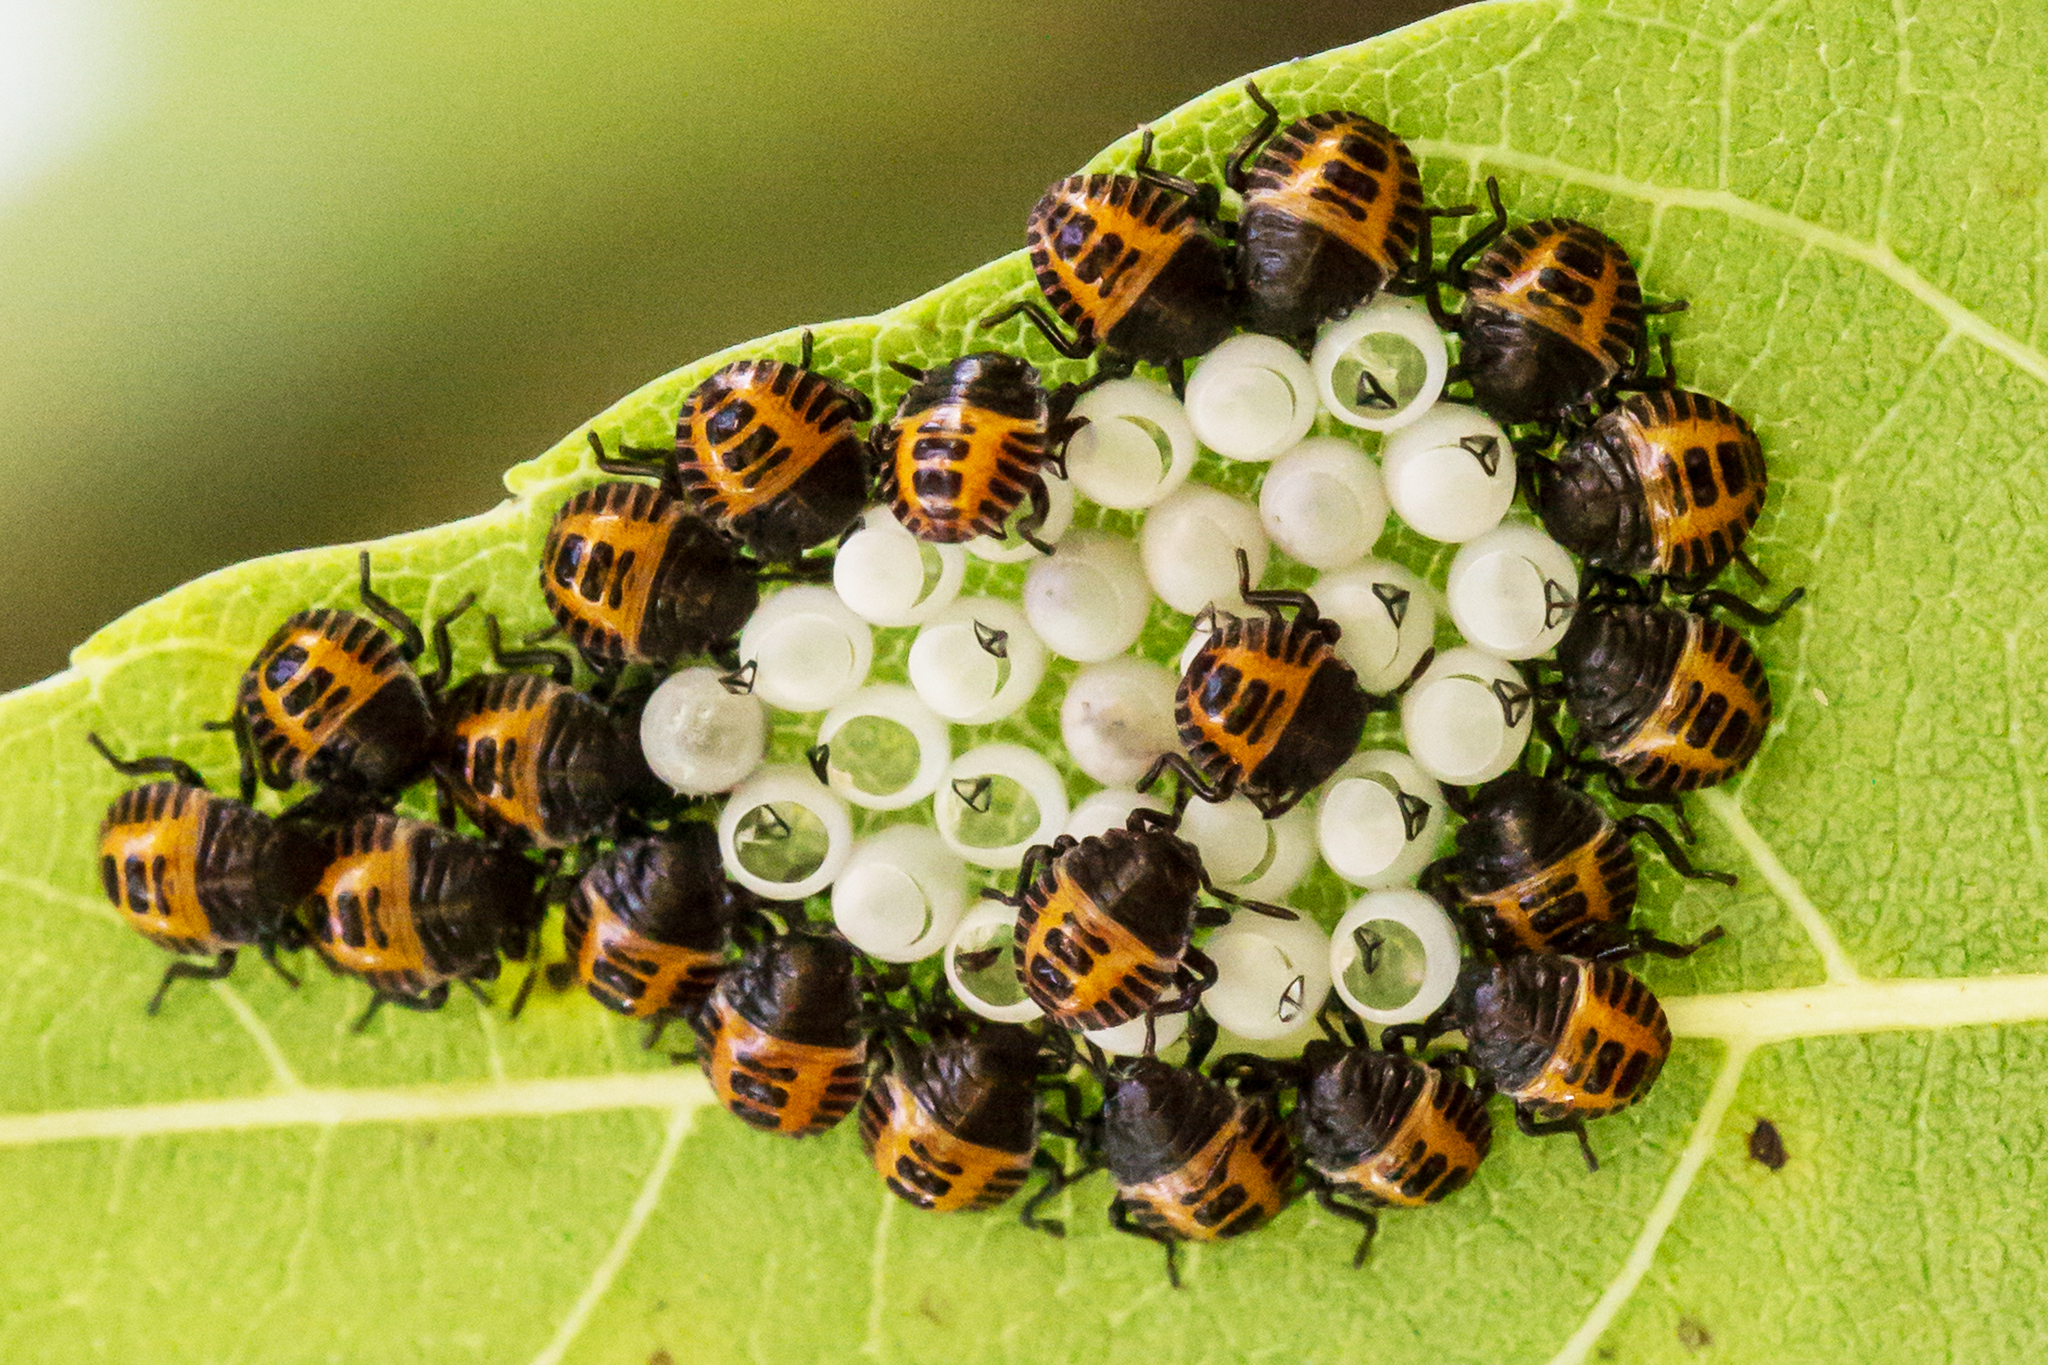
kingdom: Animalia
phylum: Arthropoda
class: Insecta
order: Hemiptera
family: Pentatomidae
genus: Halyomorpha
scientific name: Halyomorpha halys
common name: Brown marmorated stink bug
